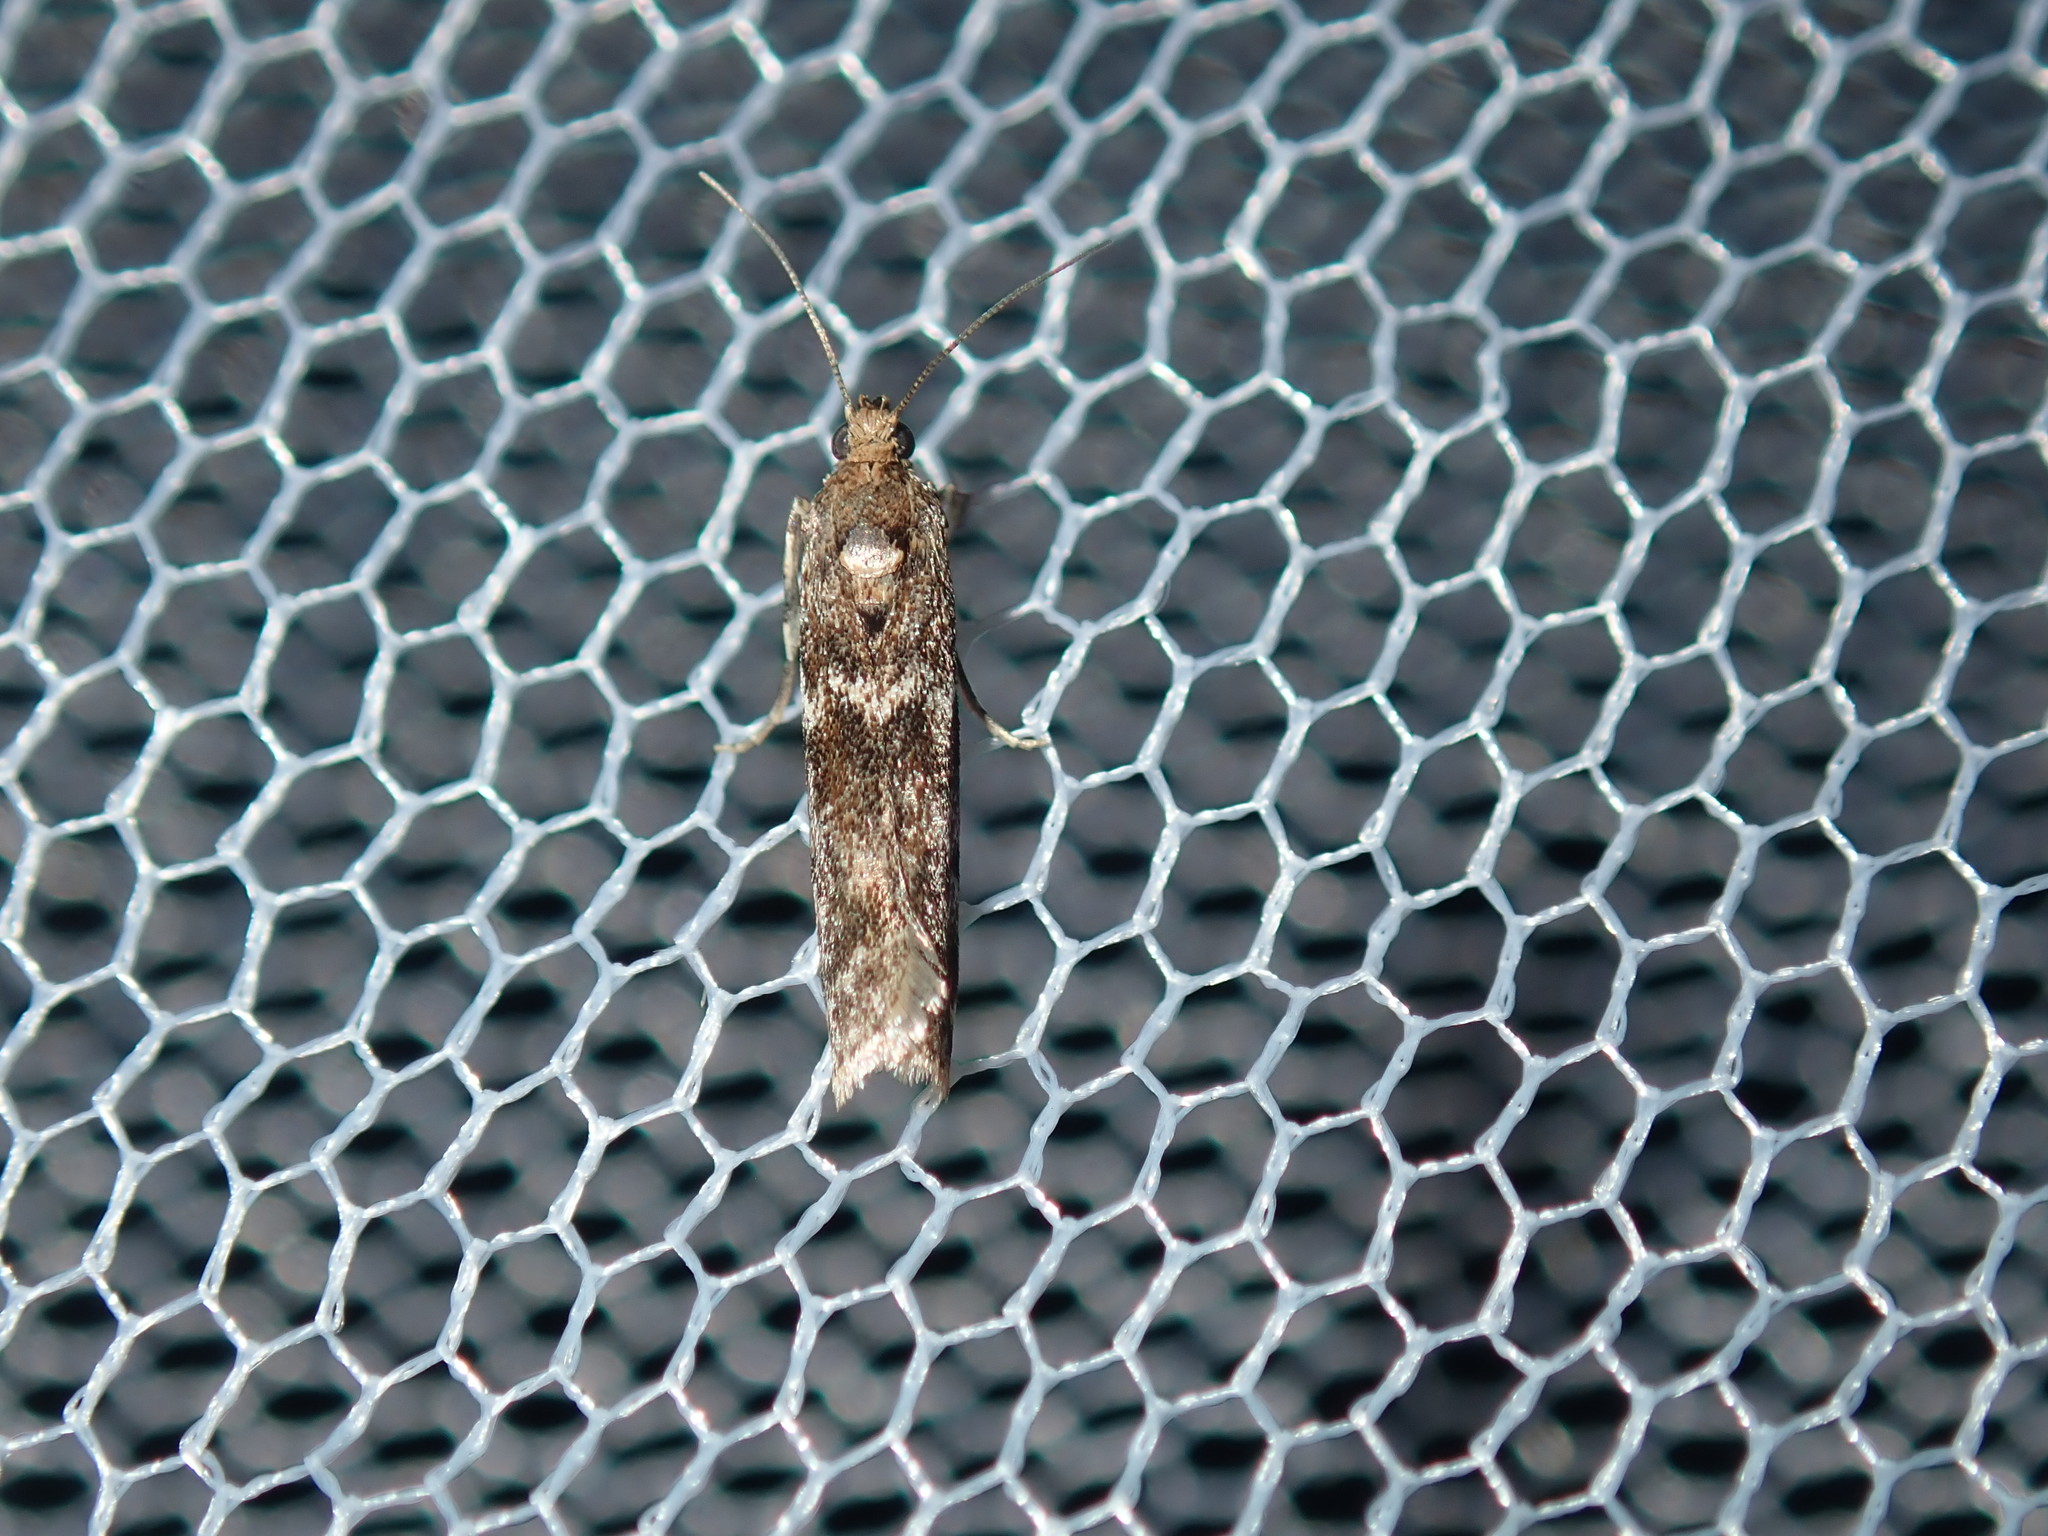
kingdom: Animalia
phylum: Arthropoda
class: Insecta
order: Lepidoptera
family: Pyralidae
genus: Ephestiopsis
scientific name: Ephestiopsis oenobarella
